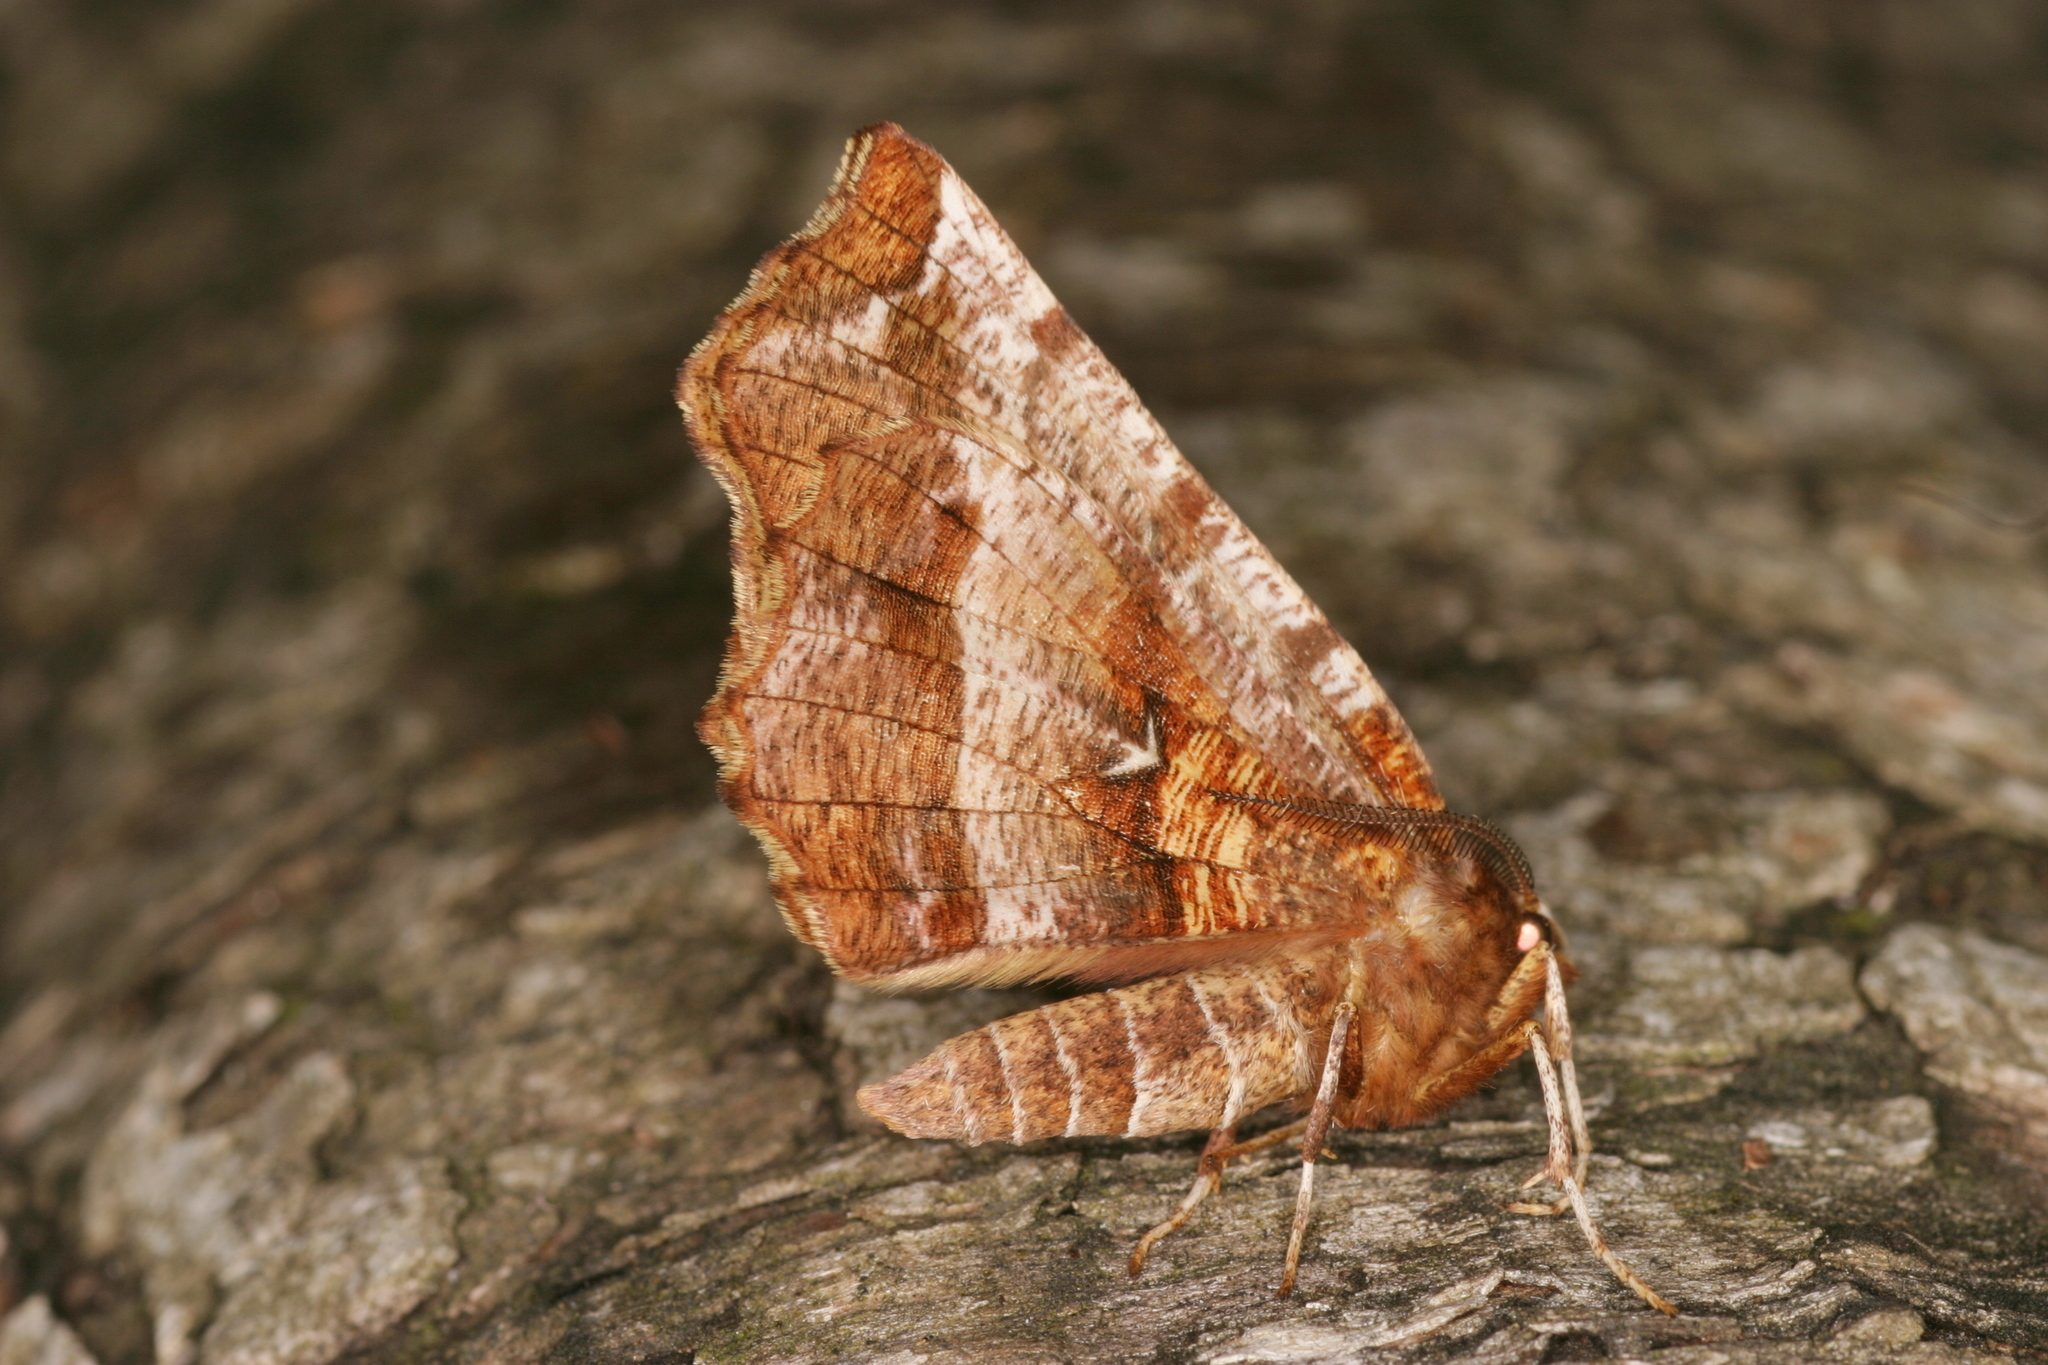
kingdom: Animalia
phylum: Arthropoda
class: Insecta
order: Lepidoptera
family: Geometridae
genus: Selenia
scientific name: Selenia dentaria
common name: Early thorn
